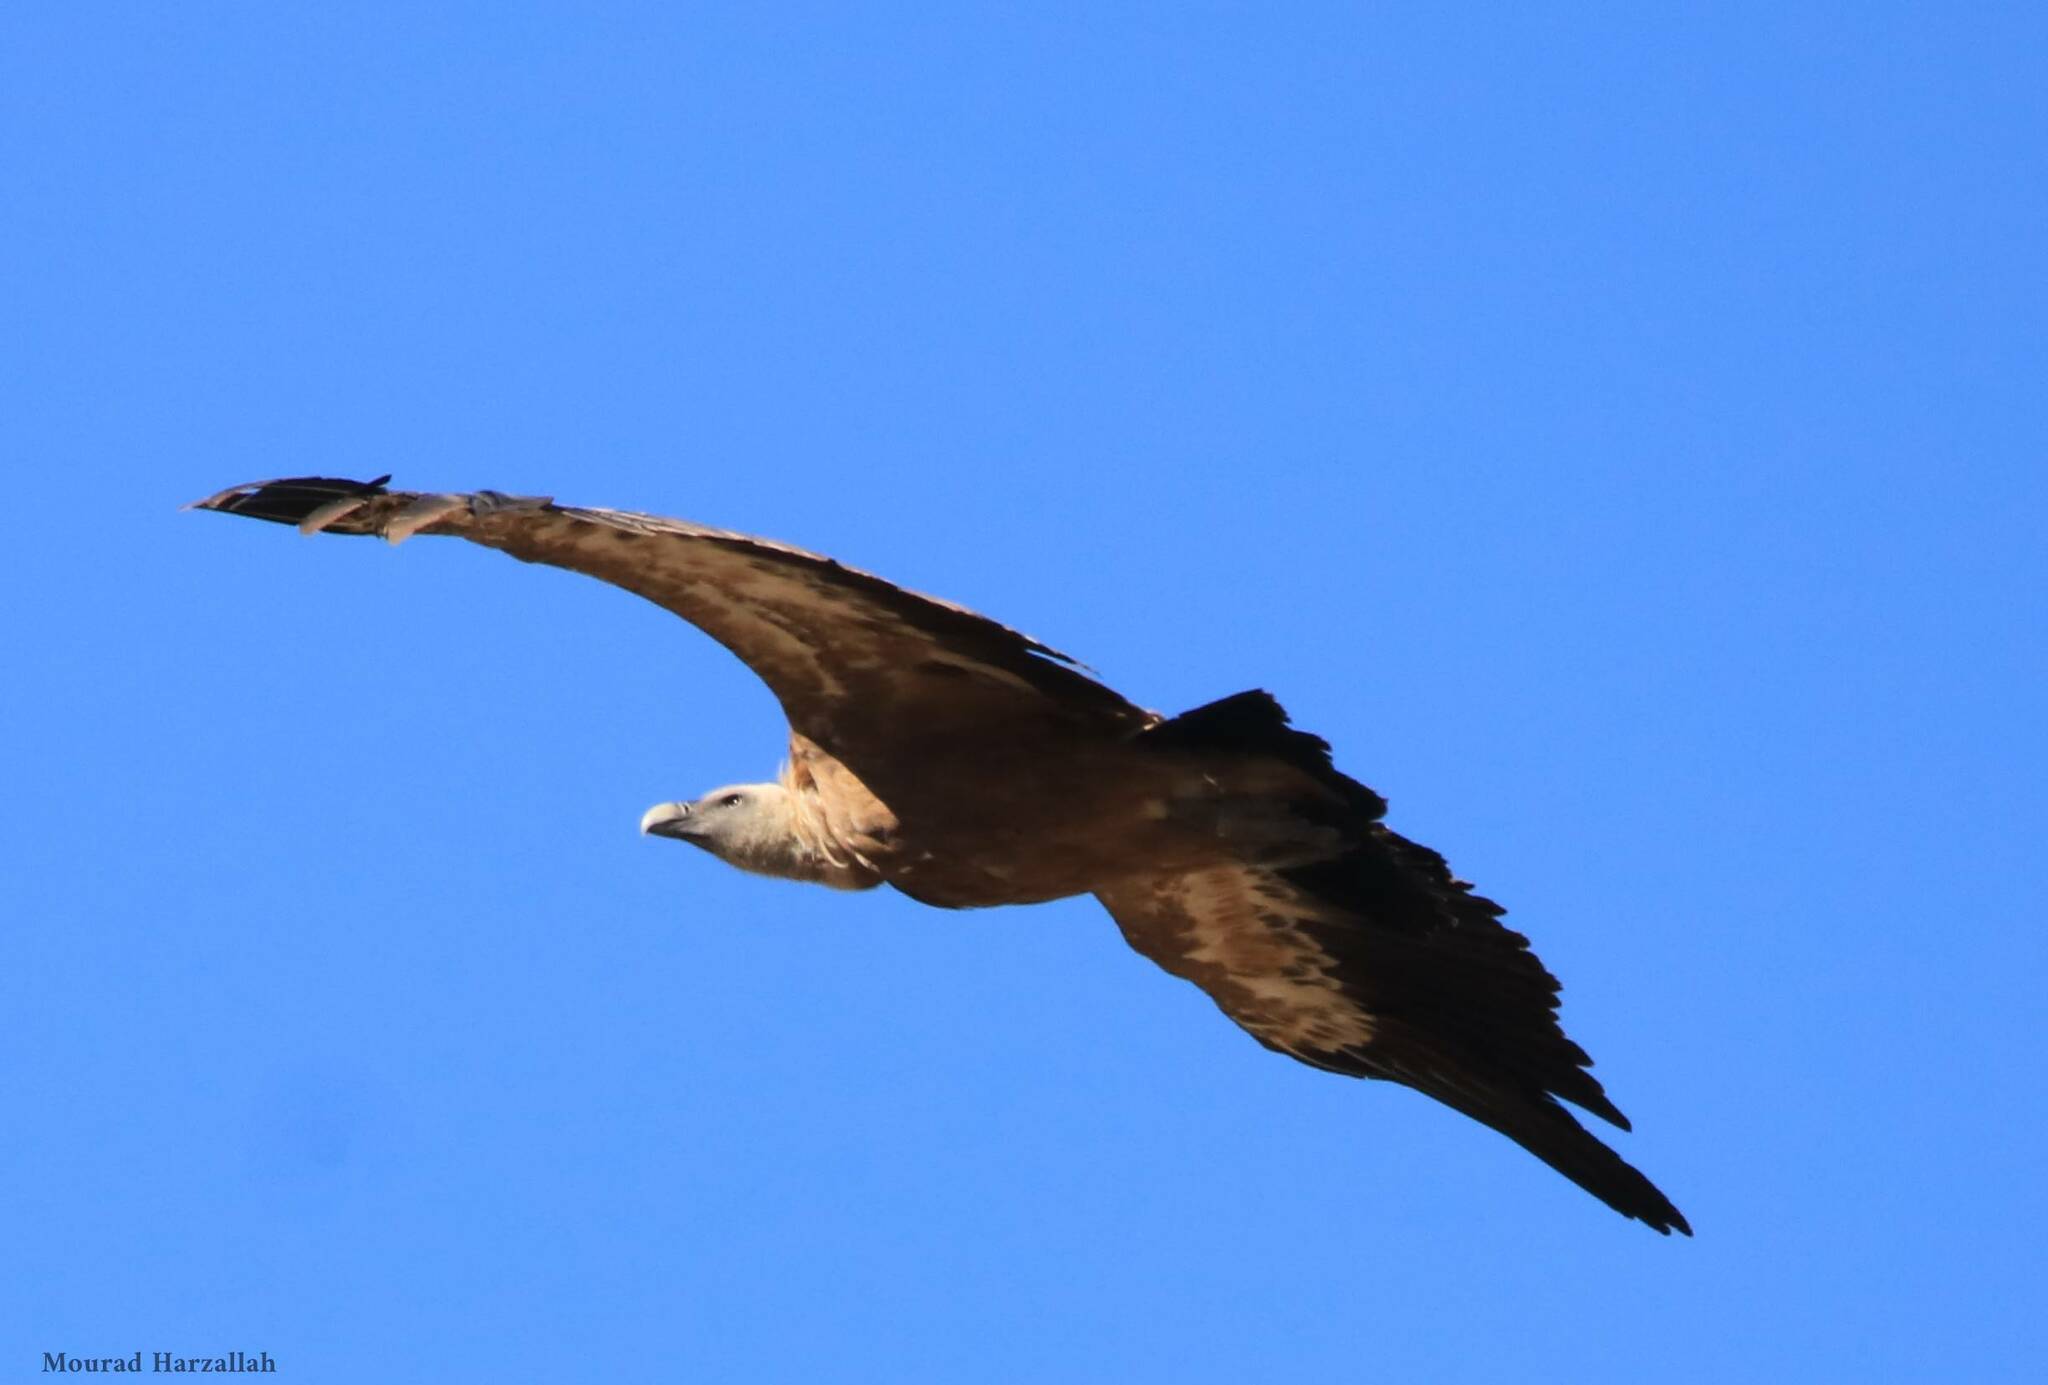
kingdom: Animalia
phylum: Chordata
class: Aves
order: Accipitriformes
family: Accipitridae
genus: Gyps
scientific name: Gyps fulvus
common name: Griffon vulture
